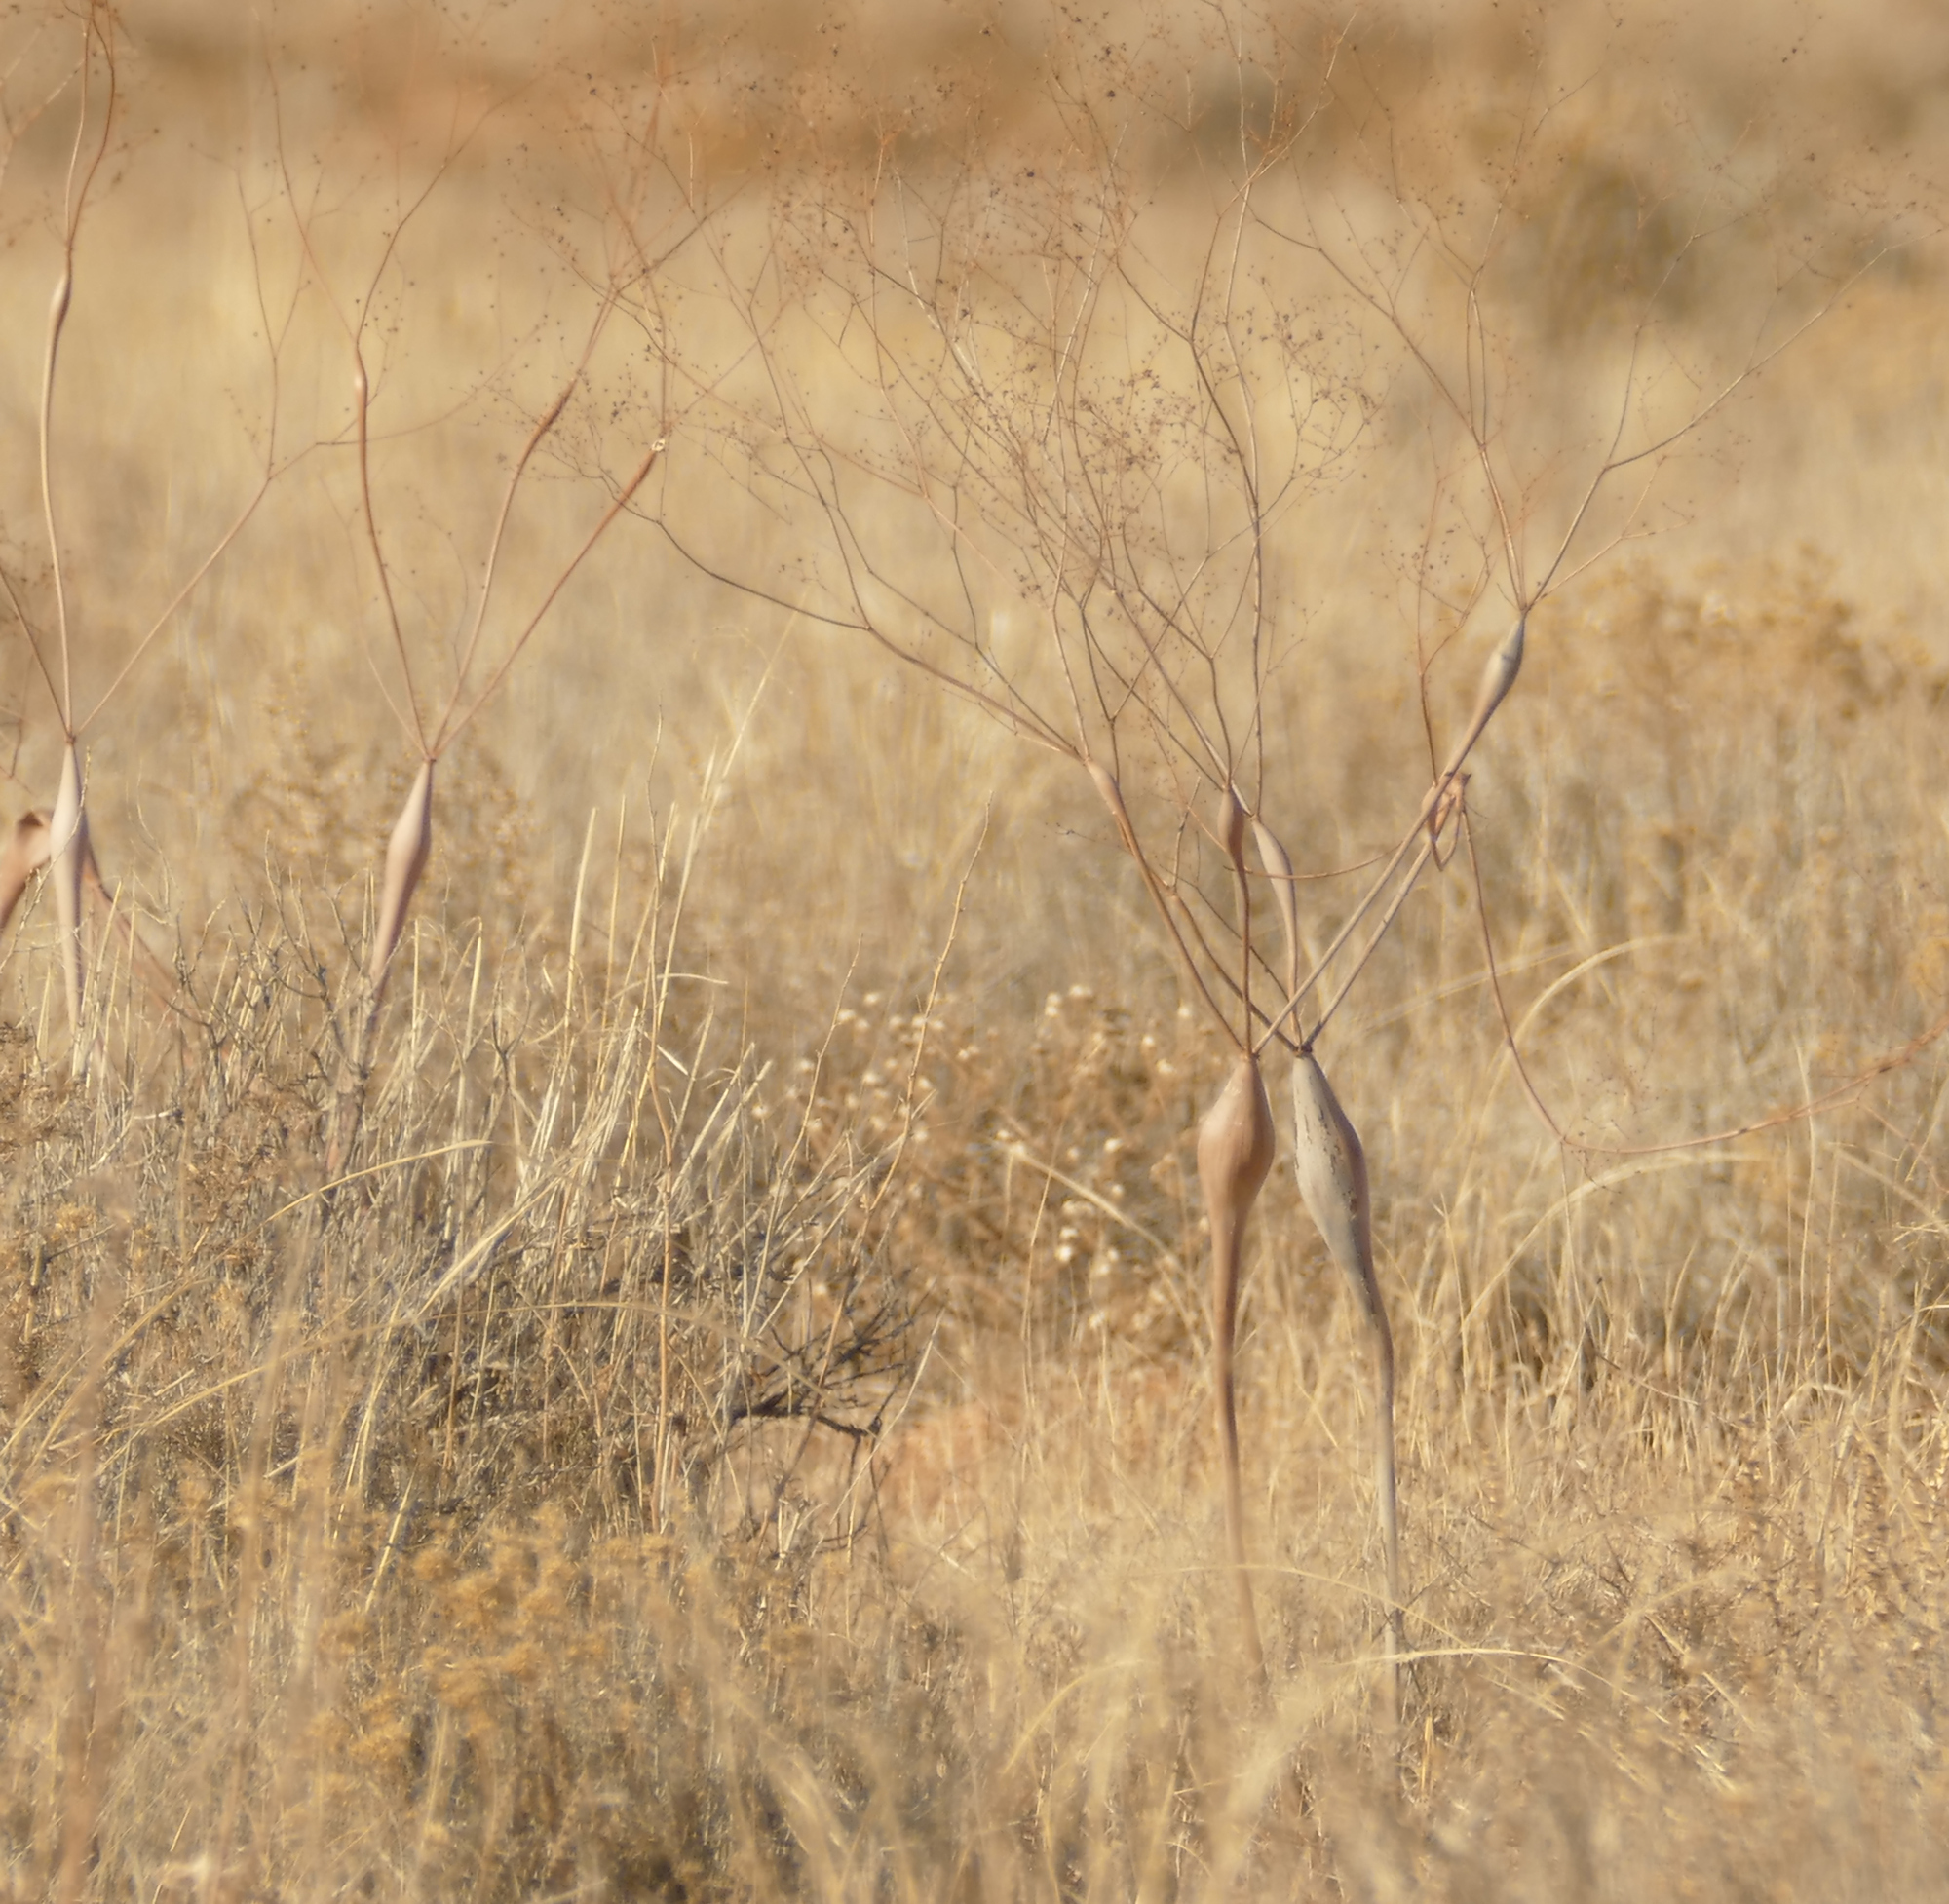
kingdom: Plantae
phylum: Tracheophyta
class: Magnoliopsida
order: Caryophyllales
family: Polygonaceae
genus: Eriogonum
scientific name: Eriogonum inflatum
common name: Desert trumpet
